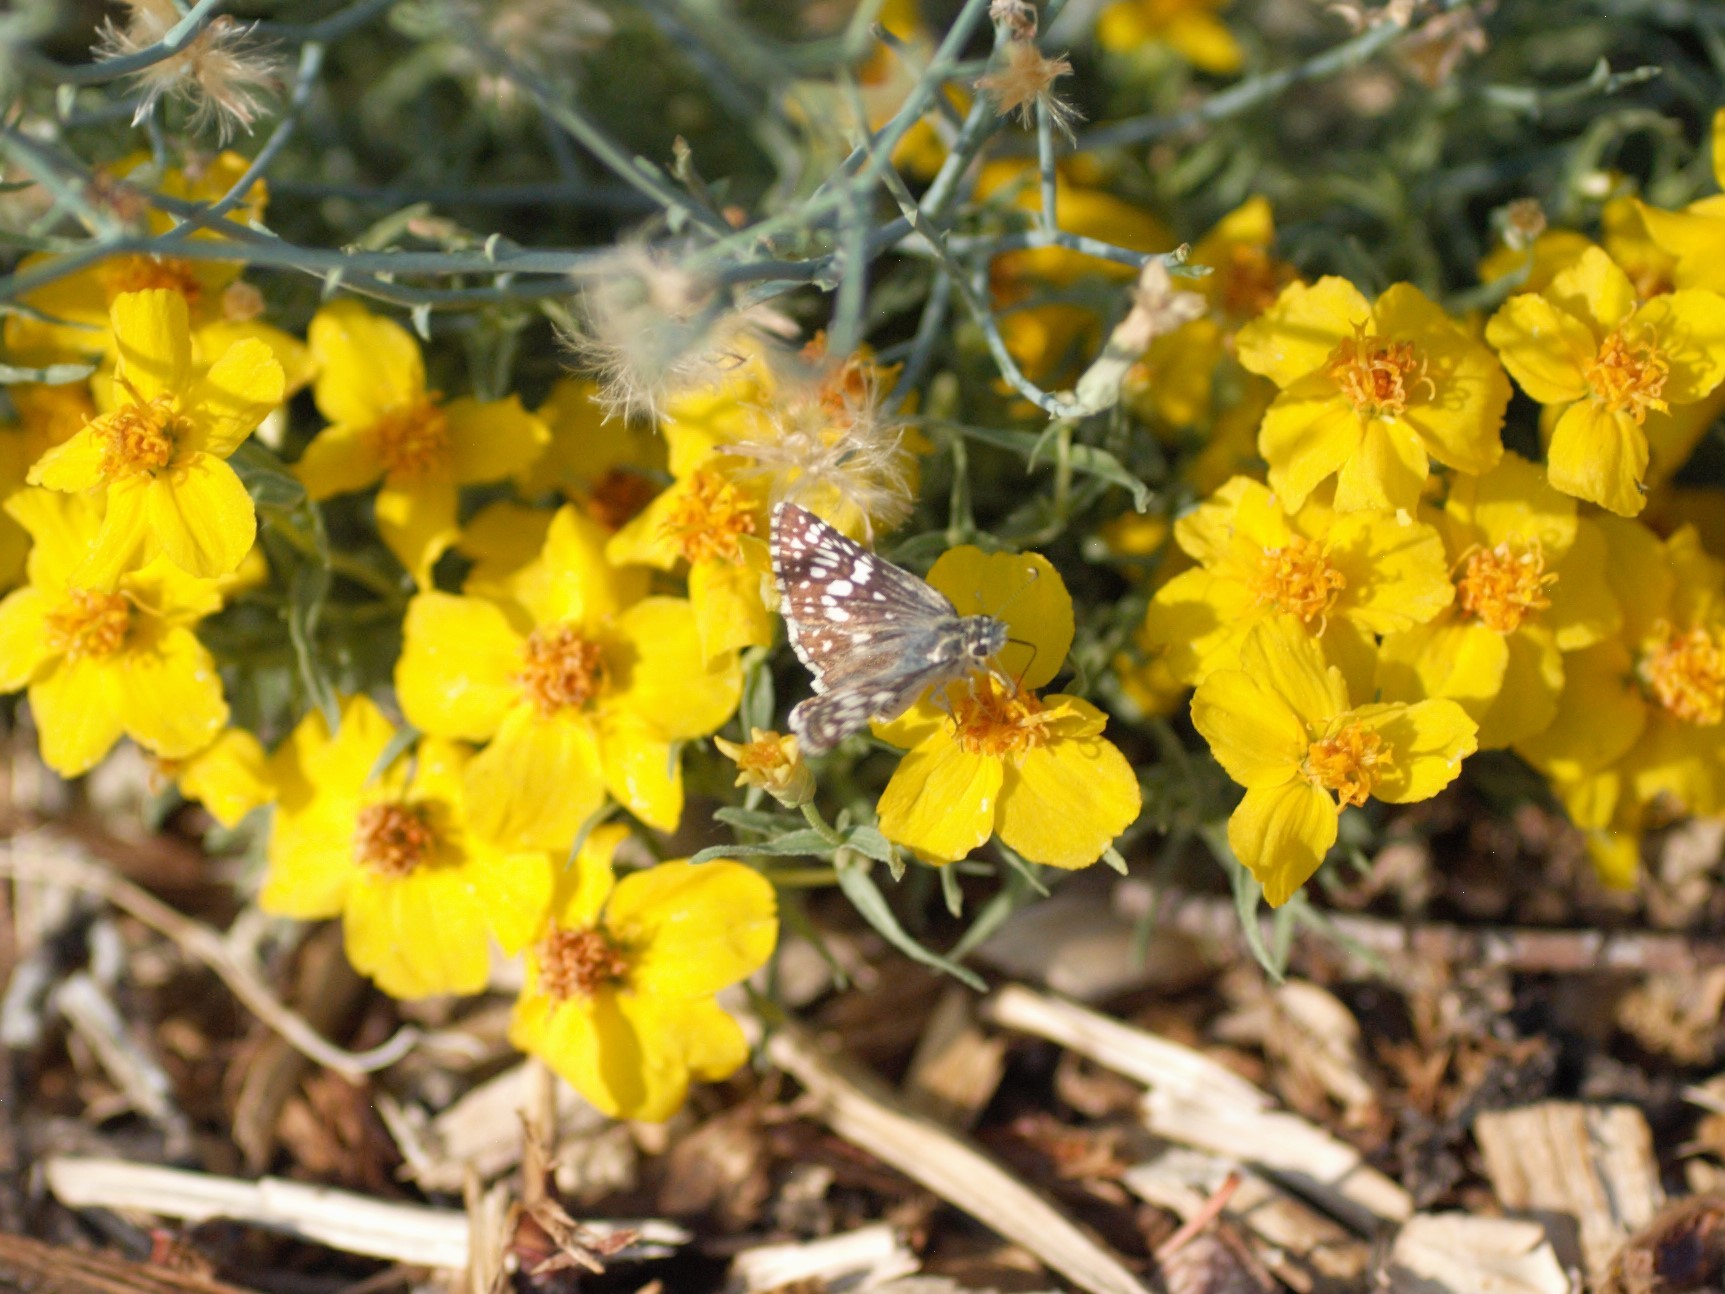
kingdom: Animalia
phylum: Arthropoda
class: Insecta
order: Lepidoptera
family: Hesperiidae
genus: Burnsius
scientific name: Burnsius
